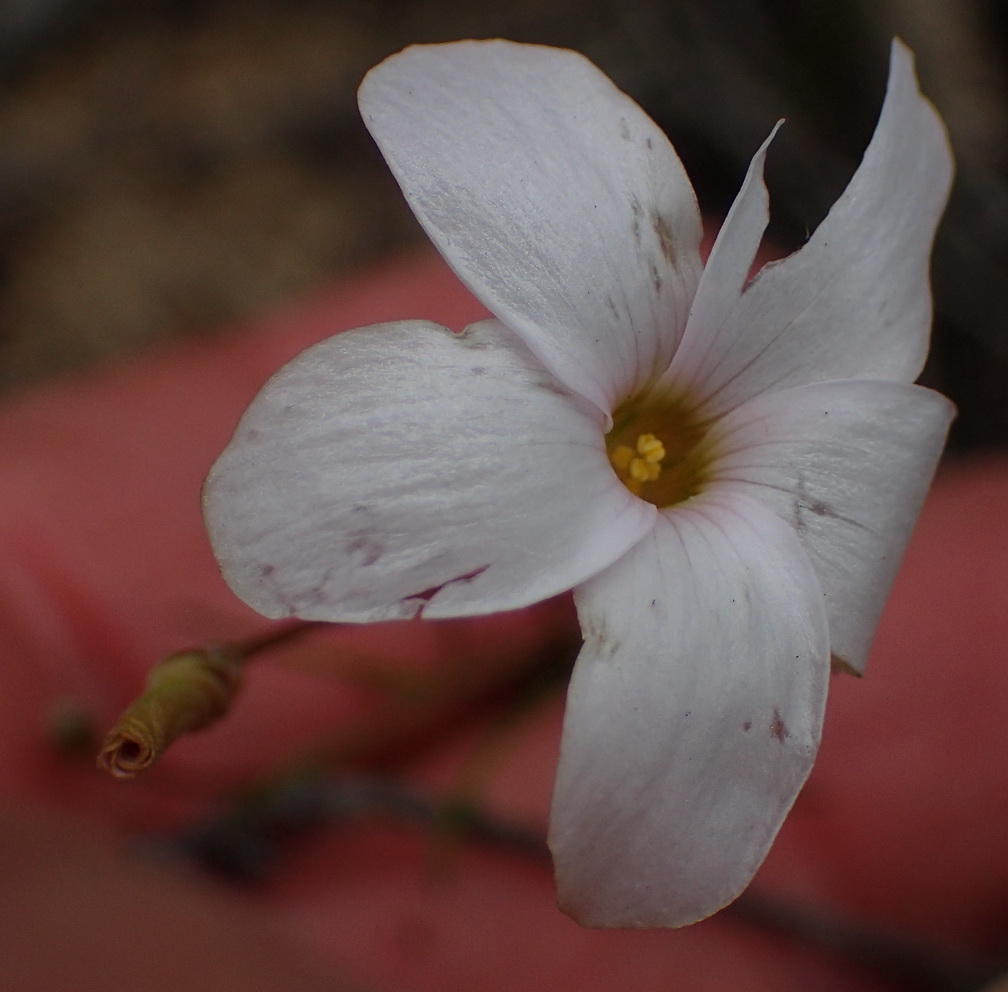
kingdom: Plantae
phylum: Tracheophyta
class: Magnoliopsida
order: Oxalidales
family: Oxalidaceae
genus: Oxalis
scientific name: Oxalis polyphylla
